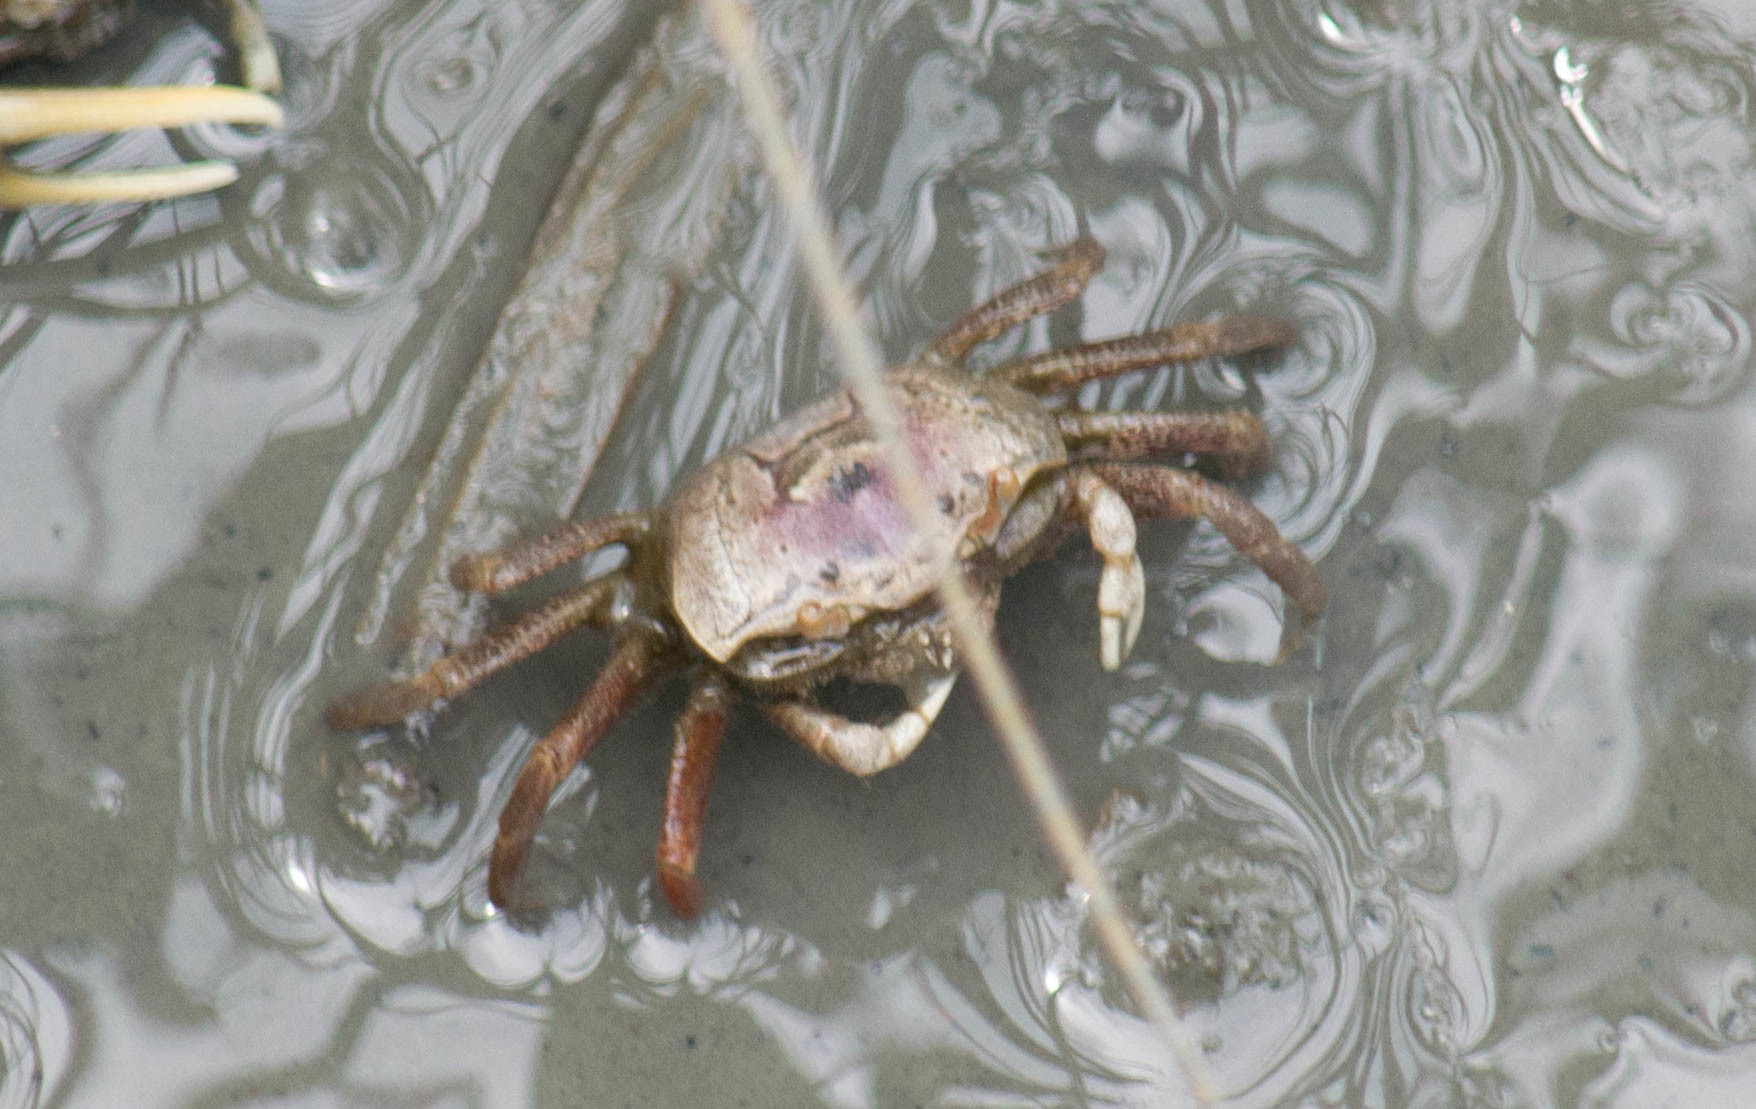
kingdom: Animalia
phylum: Arthropoda
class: Malacostraca
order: Decapoda
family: Ocypodidae
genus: Leptuca
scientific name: Leptuca pugilator
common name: Atlantic sand fiddler crab
